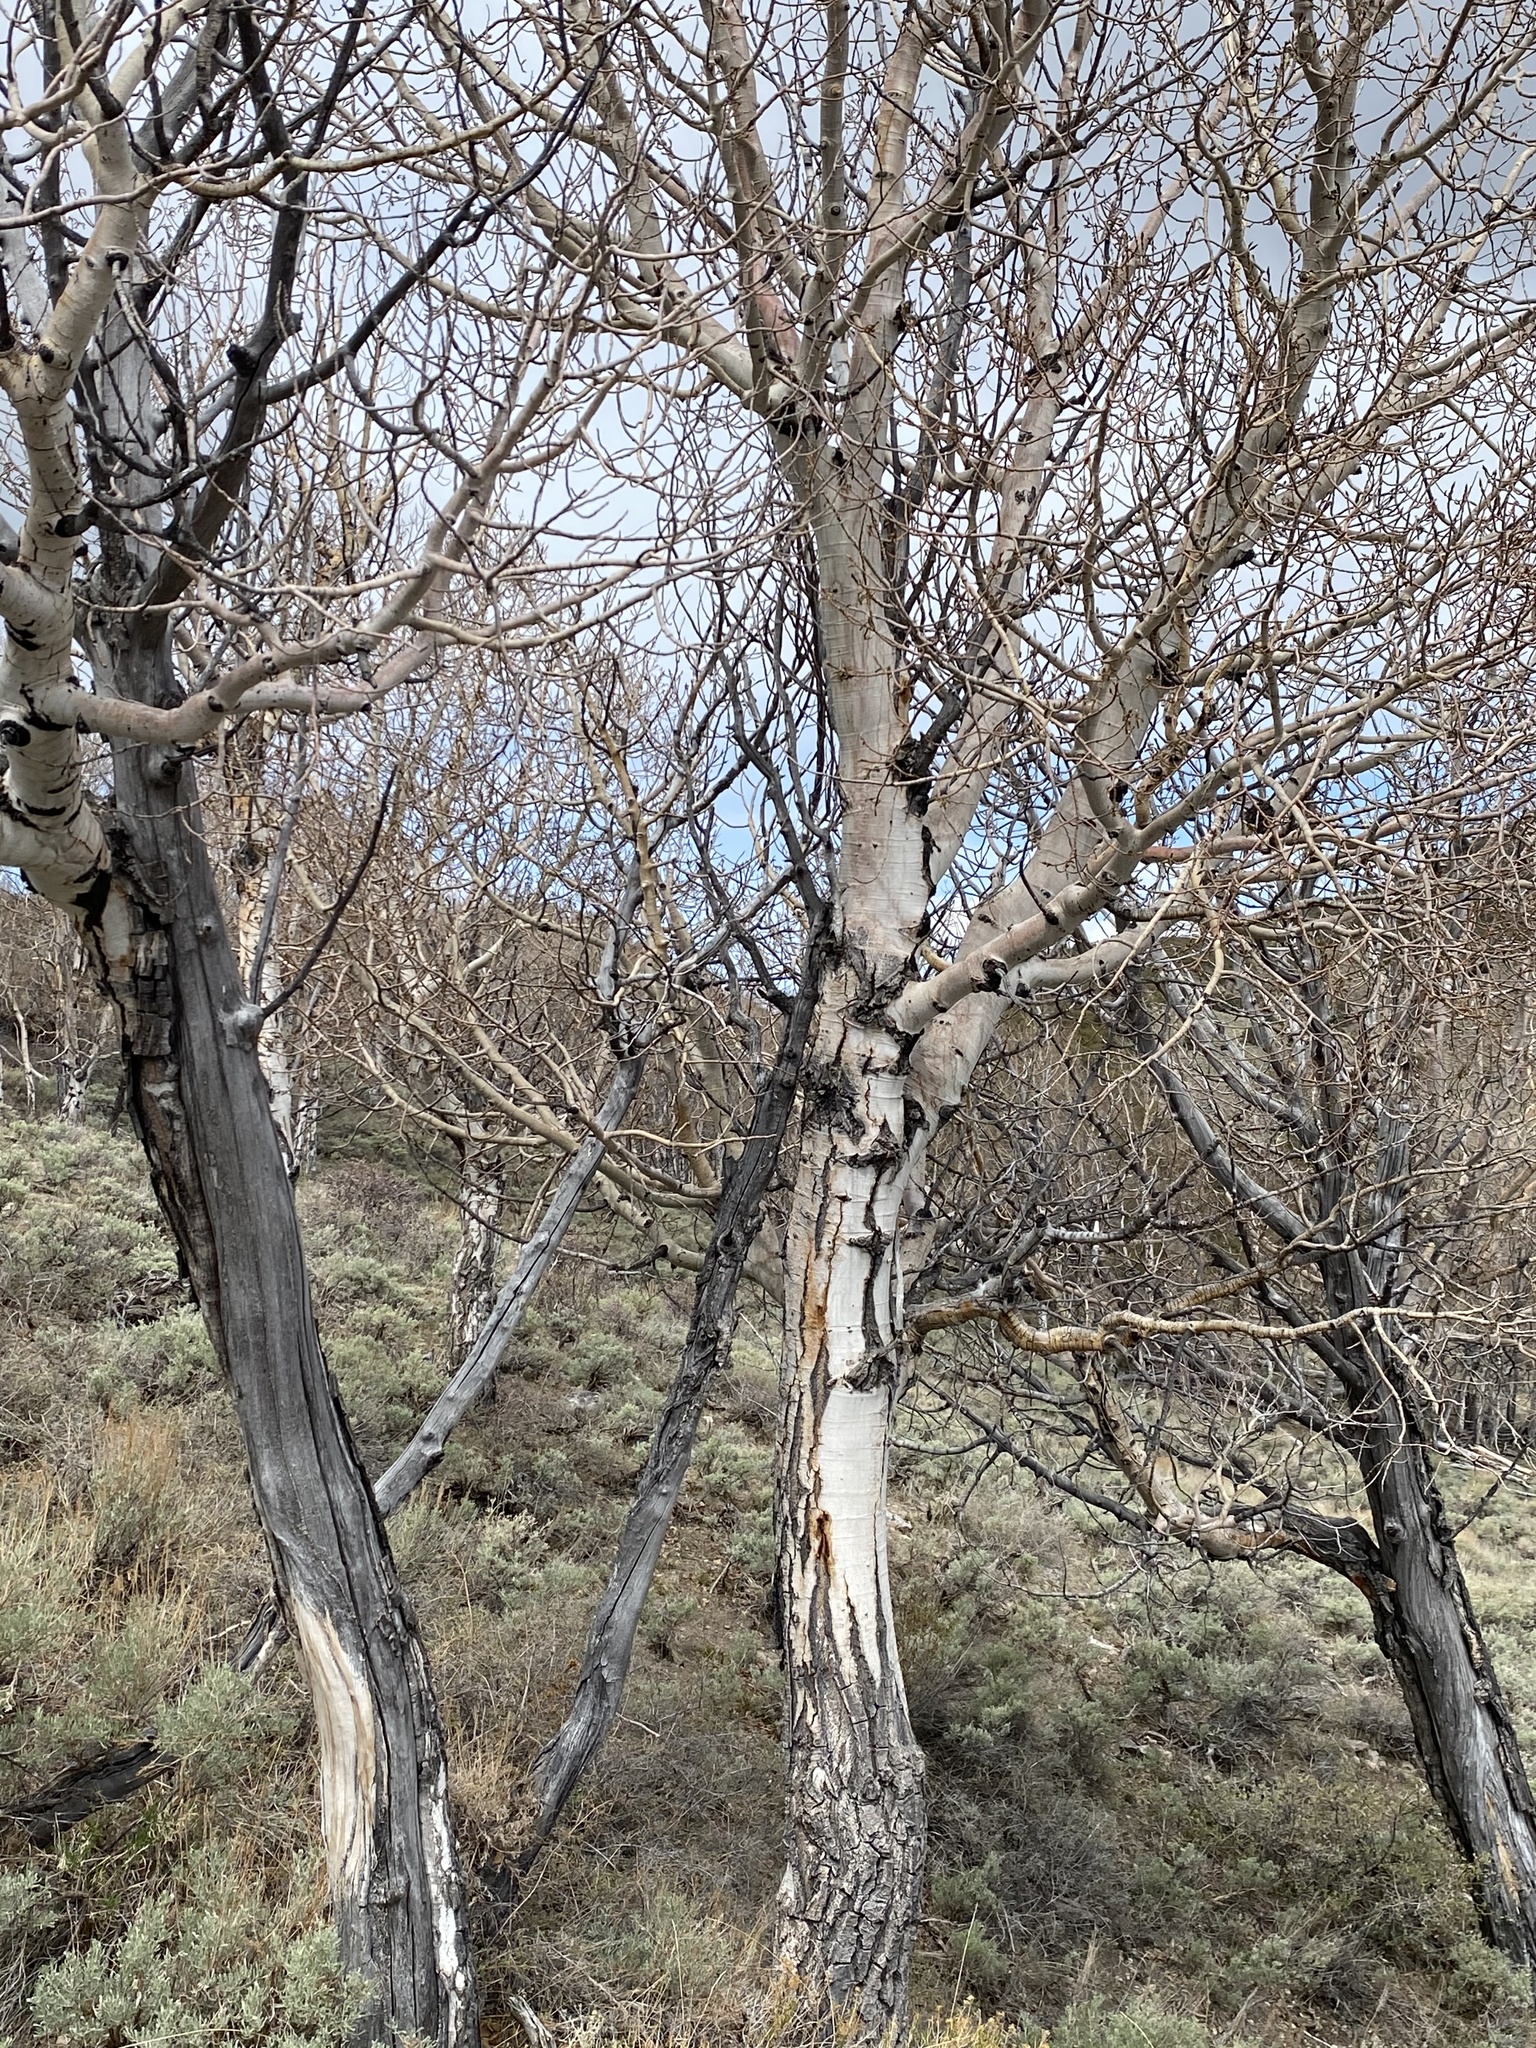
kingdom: Plantae
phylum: Tracheophyta
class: Magnoliopsida
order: Malpighiales
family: Salicaceae
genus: Populus
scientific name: Populus tremuloides
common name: Quaking aspen
